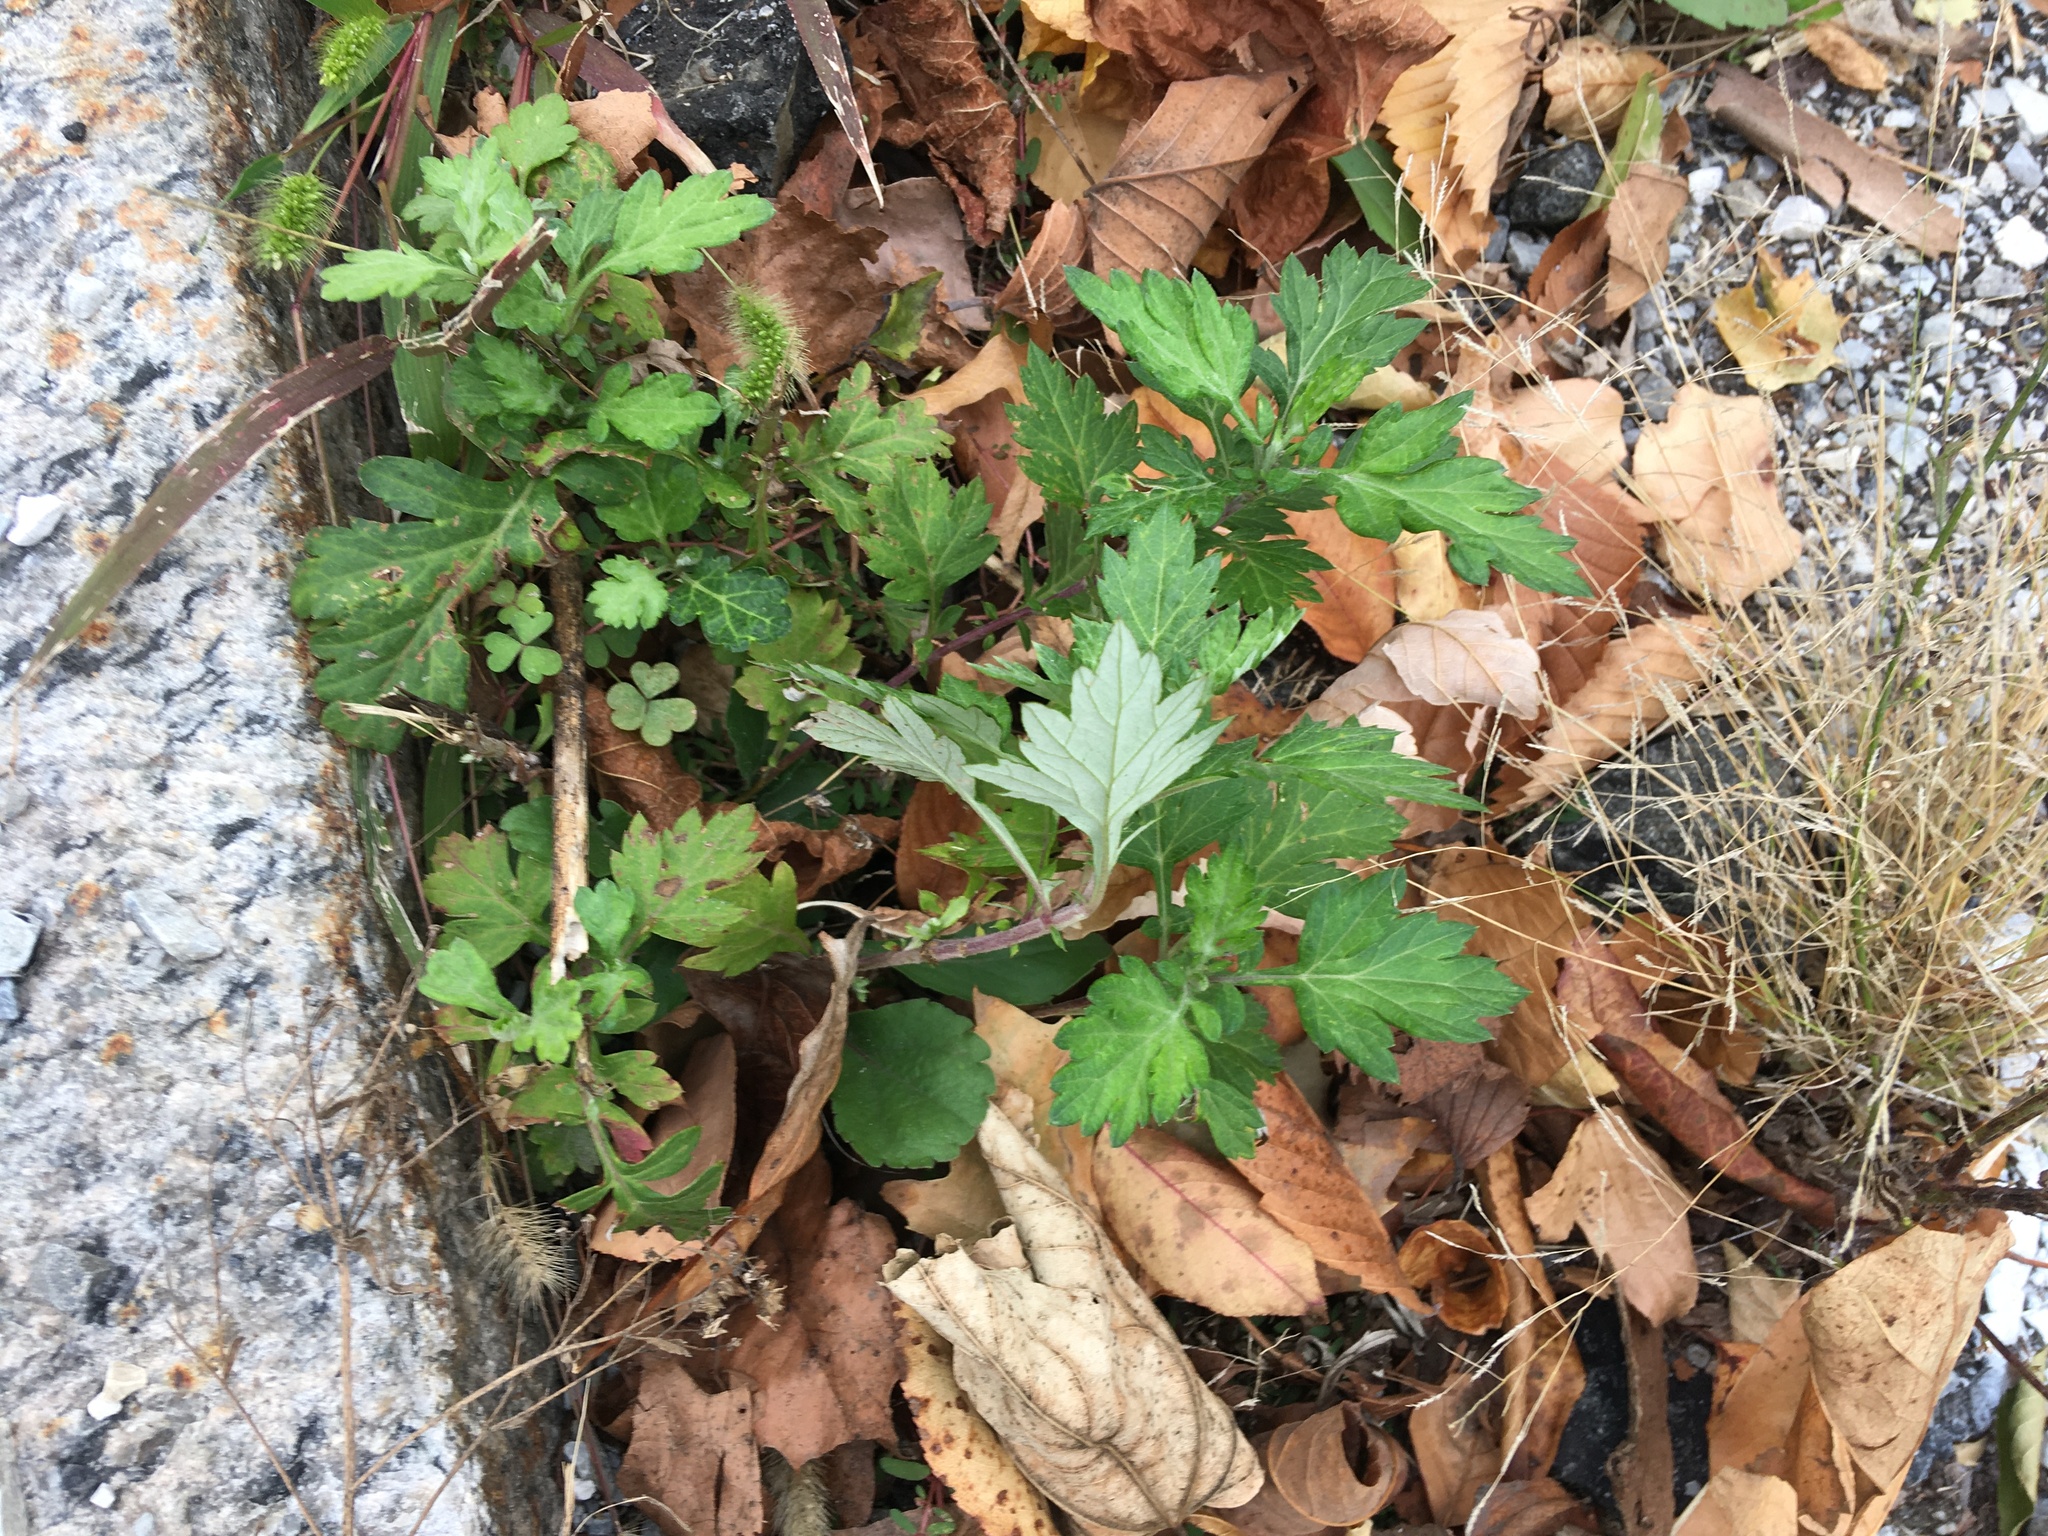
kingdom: Plantae
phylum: Tracheophyta
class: Magnoliopsida
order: Asterales
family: Asteraceae
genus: Artemisia
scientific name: Artemisia vulgaris
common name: Mugwort
